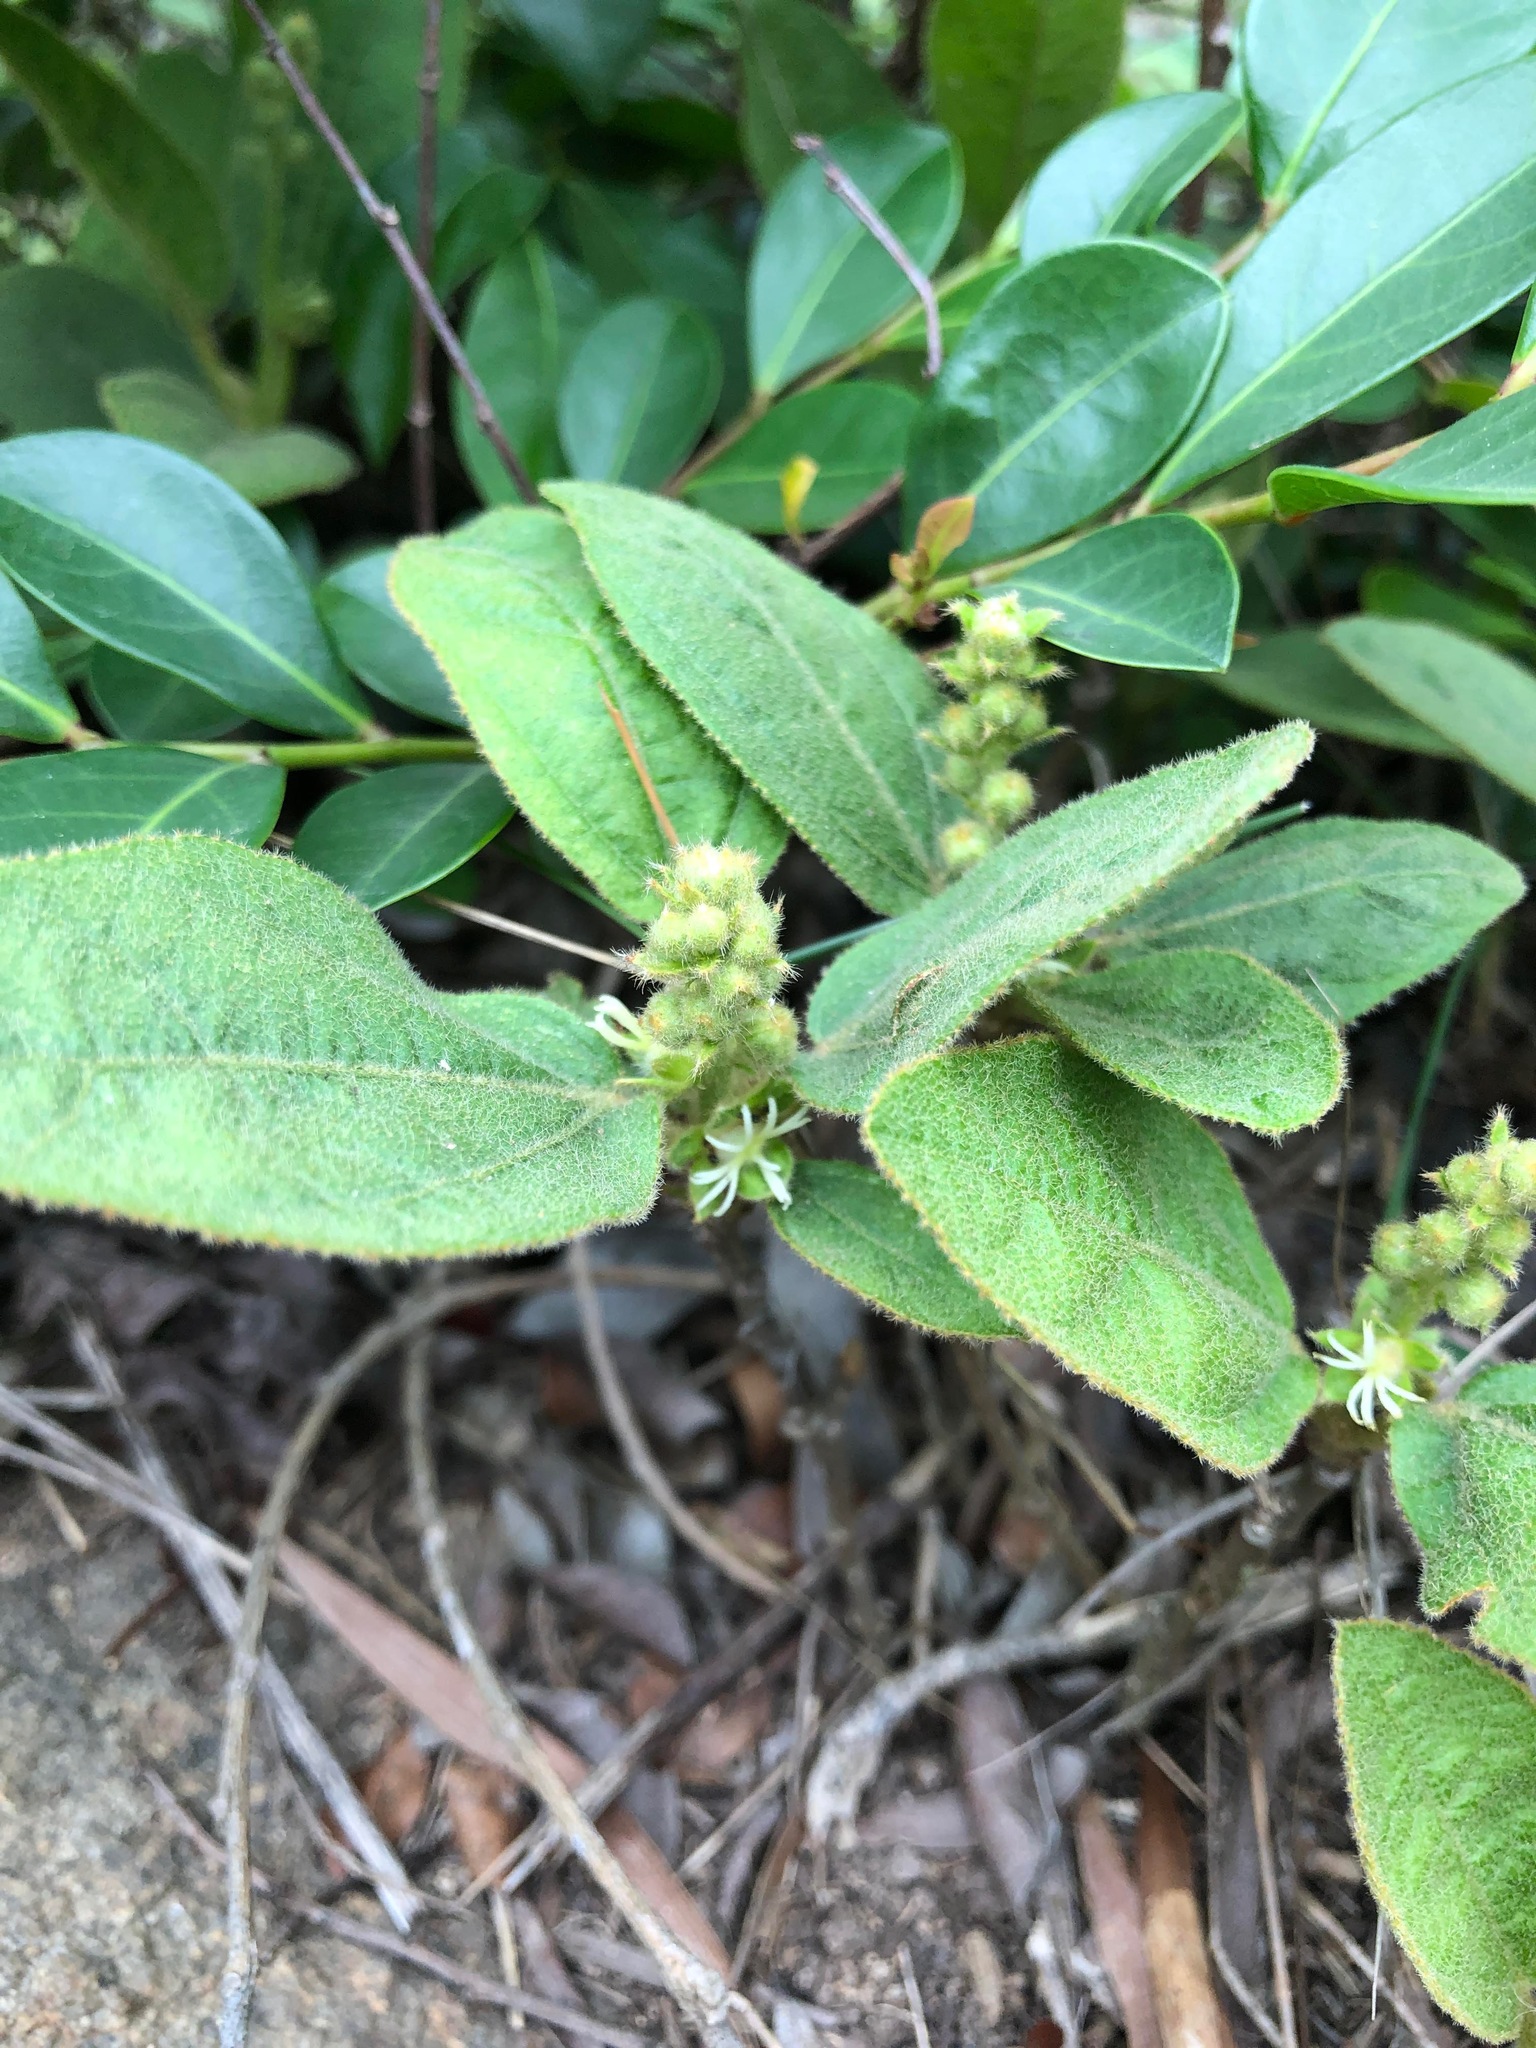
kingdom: Plantae
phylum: Tracheophyta
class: Magnoliopsida
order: Malpighiales
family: Euphorbiaceae
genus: Croton
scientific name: Croton crassifolius
